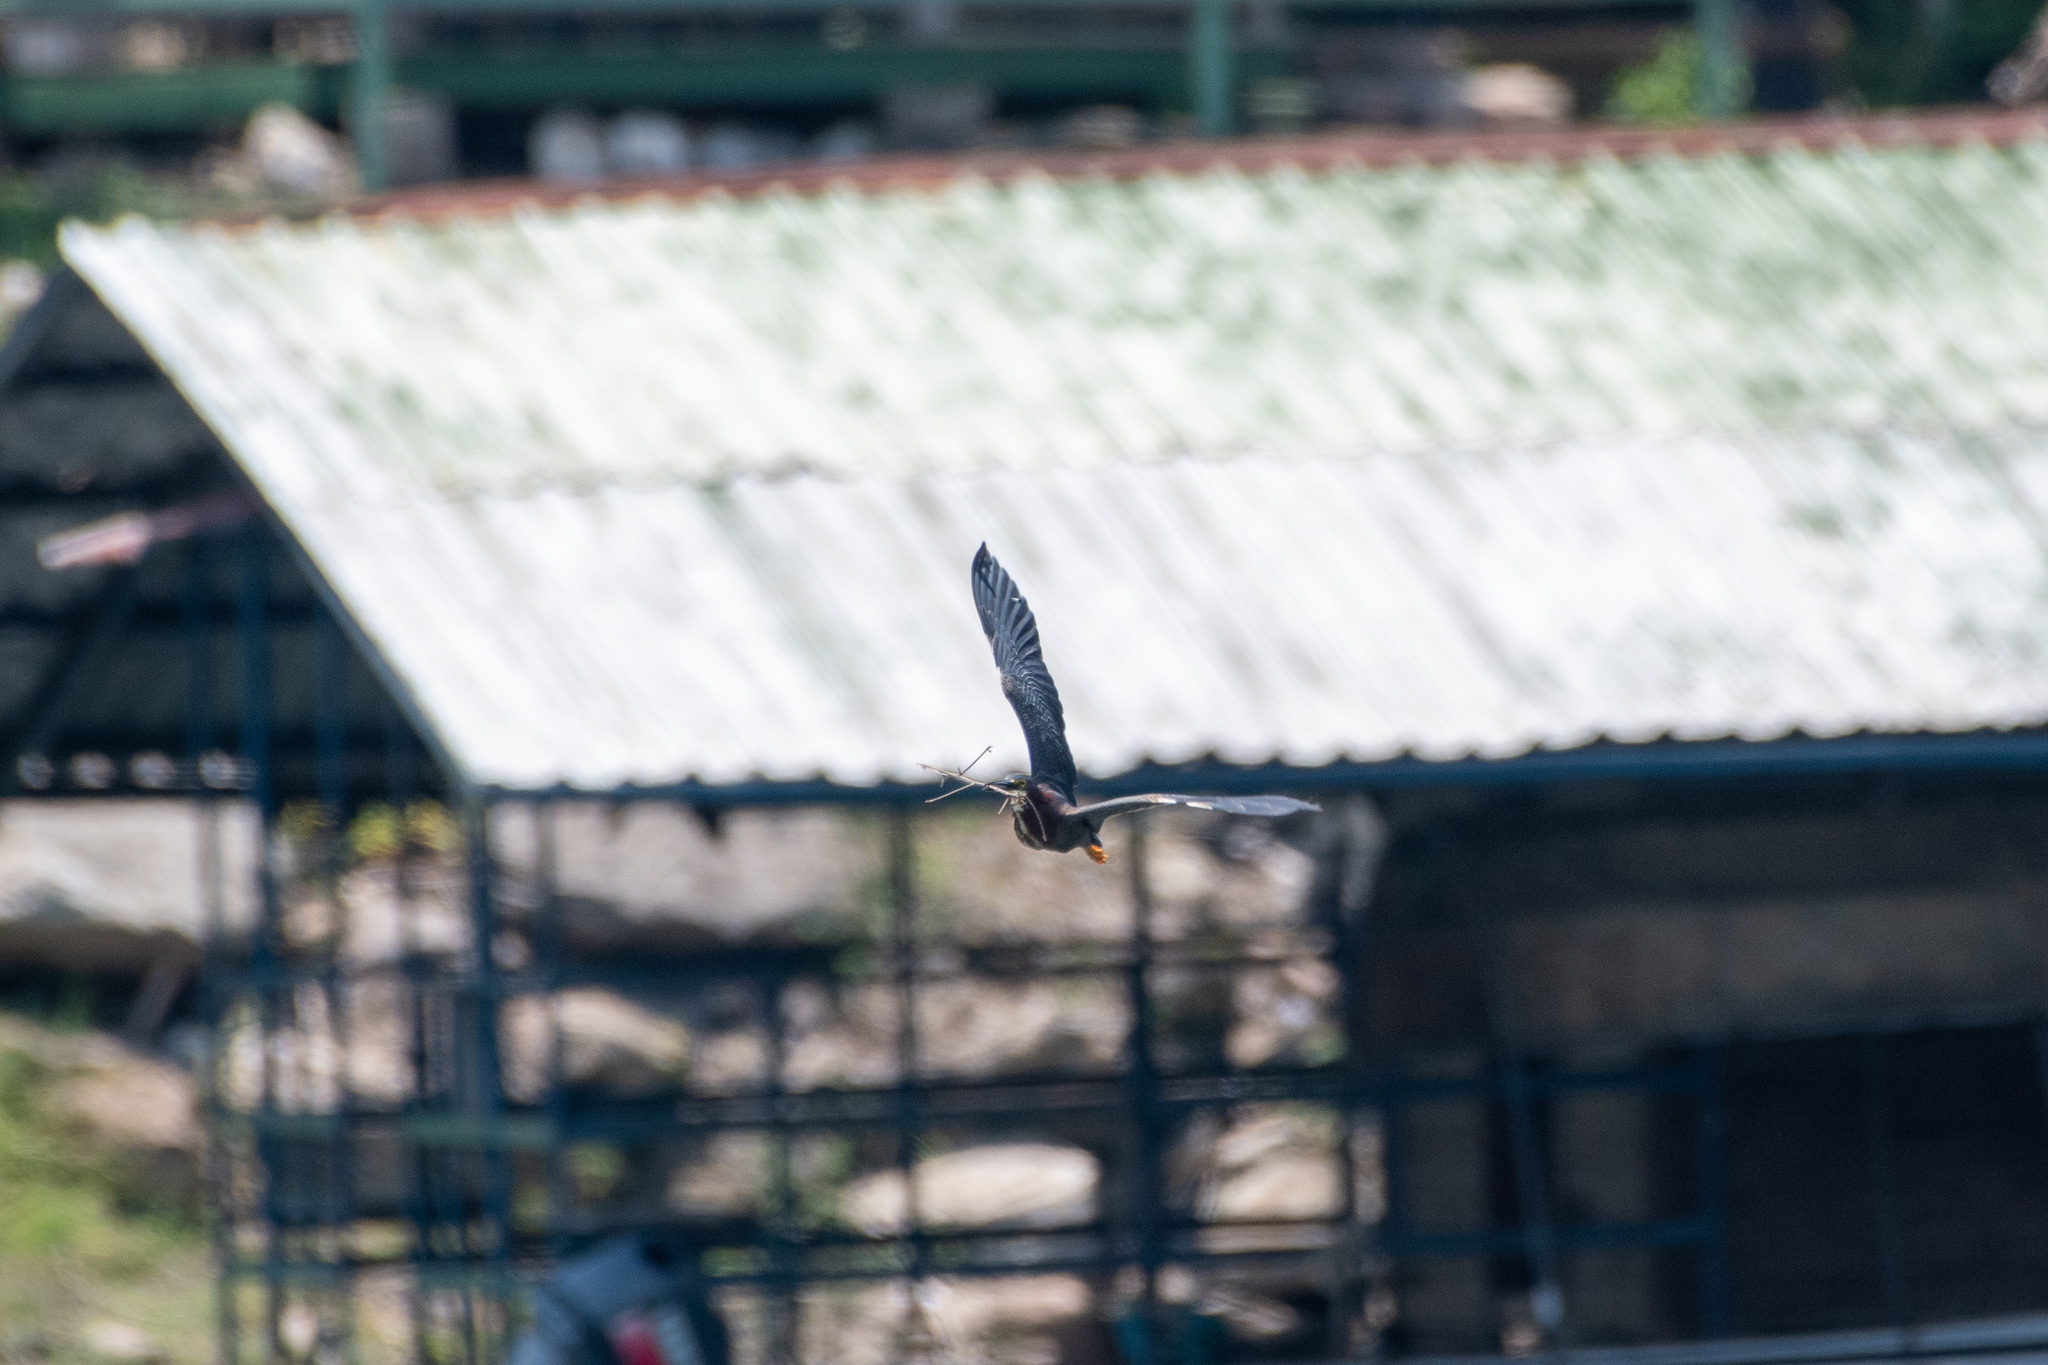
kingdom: Animalia
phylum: Chordata
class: Aves
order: Pelecaniformes
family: Ardeidae
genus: Butorides
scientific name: Butorides virescens
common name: Green heron
